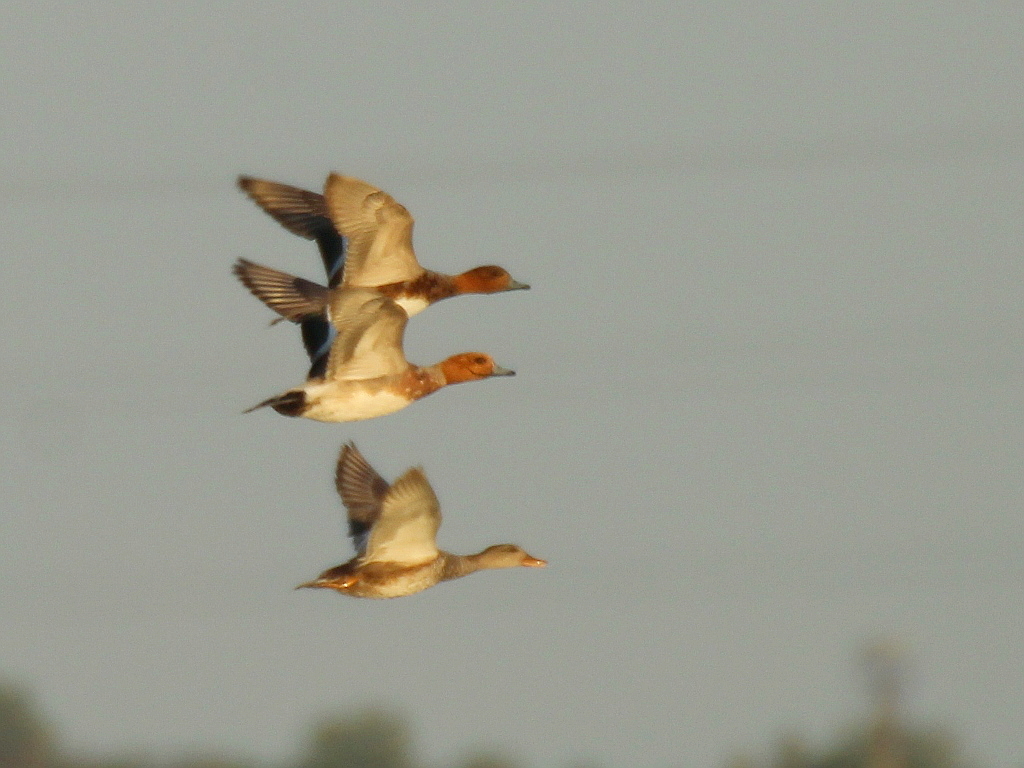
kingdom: Animalia
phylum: Chordata
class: Aves
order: Anseriformes
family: Anatidae
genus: Mareca
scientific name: Mareca penelope
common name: Eurasian wigeon
